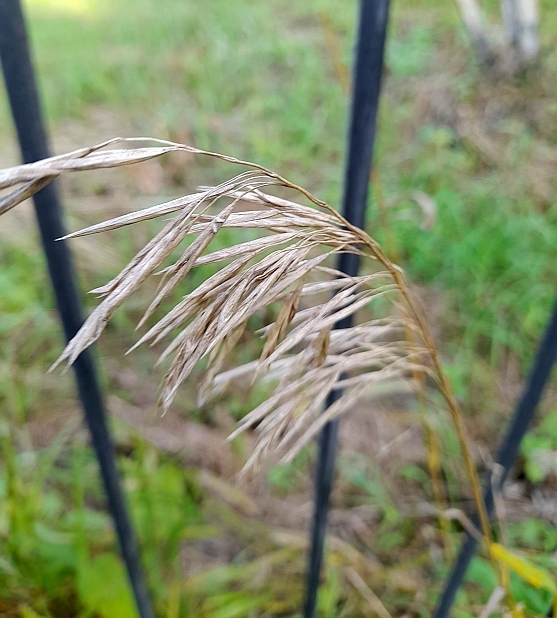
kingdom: Plantae
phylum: Tracheophyta
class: Liliopsida
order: Poales
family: Poaceae
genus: Bromus
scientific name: Bromus inermis
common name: Smooth brome
